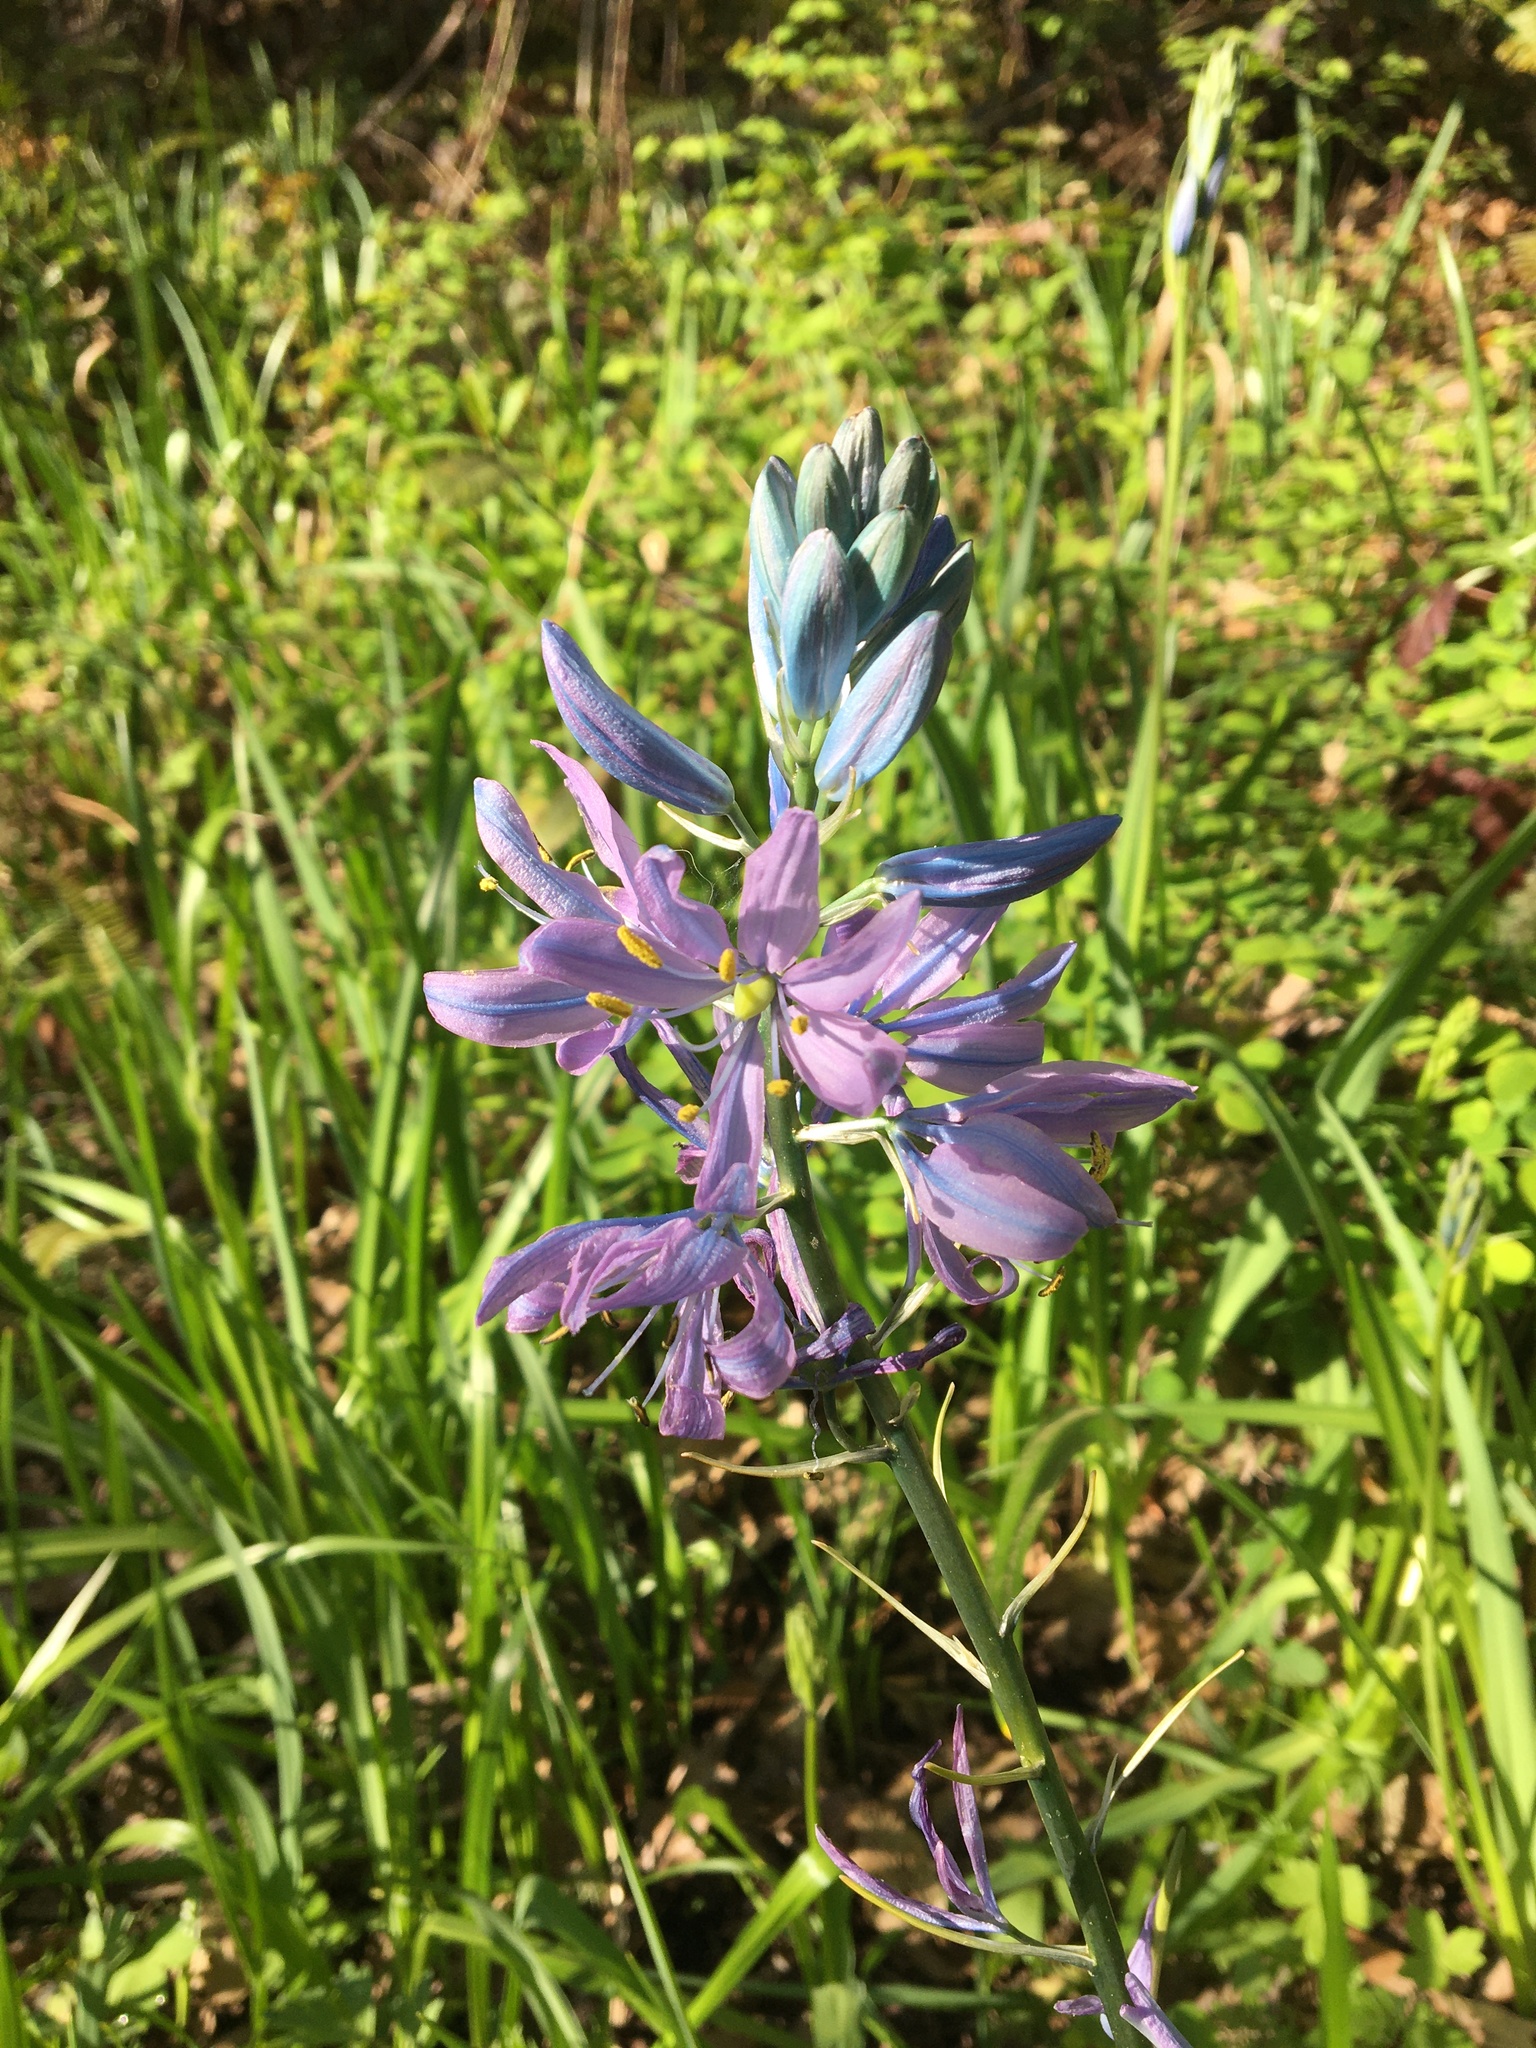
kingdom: Plantae
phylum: Tracheophyta
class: Liliopsida
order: Asparagales
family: Asparagaceae
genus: Camassia
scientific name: Camassia quamash
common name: Common camas
